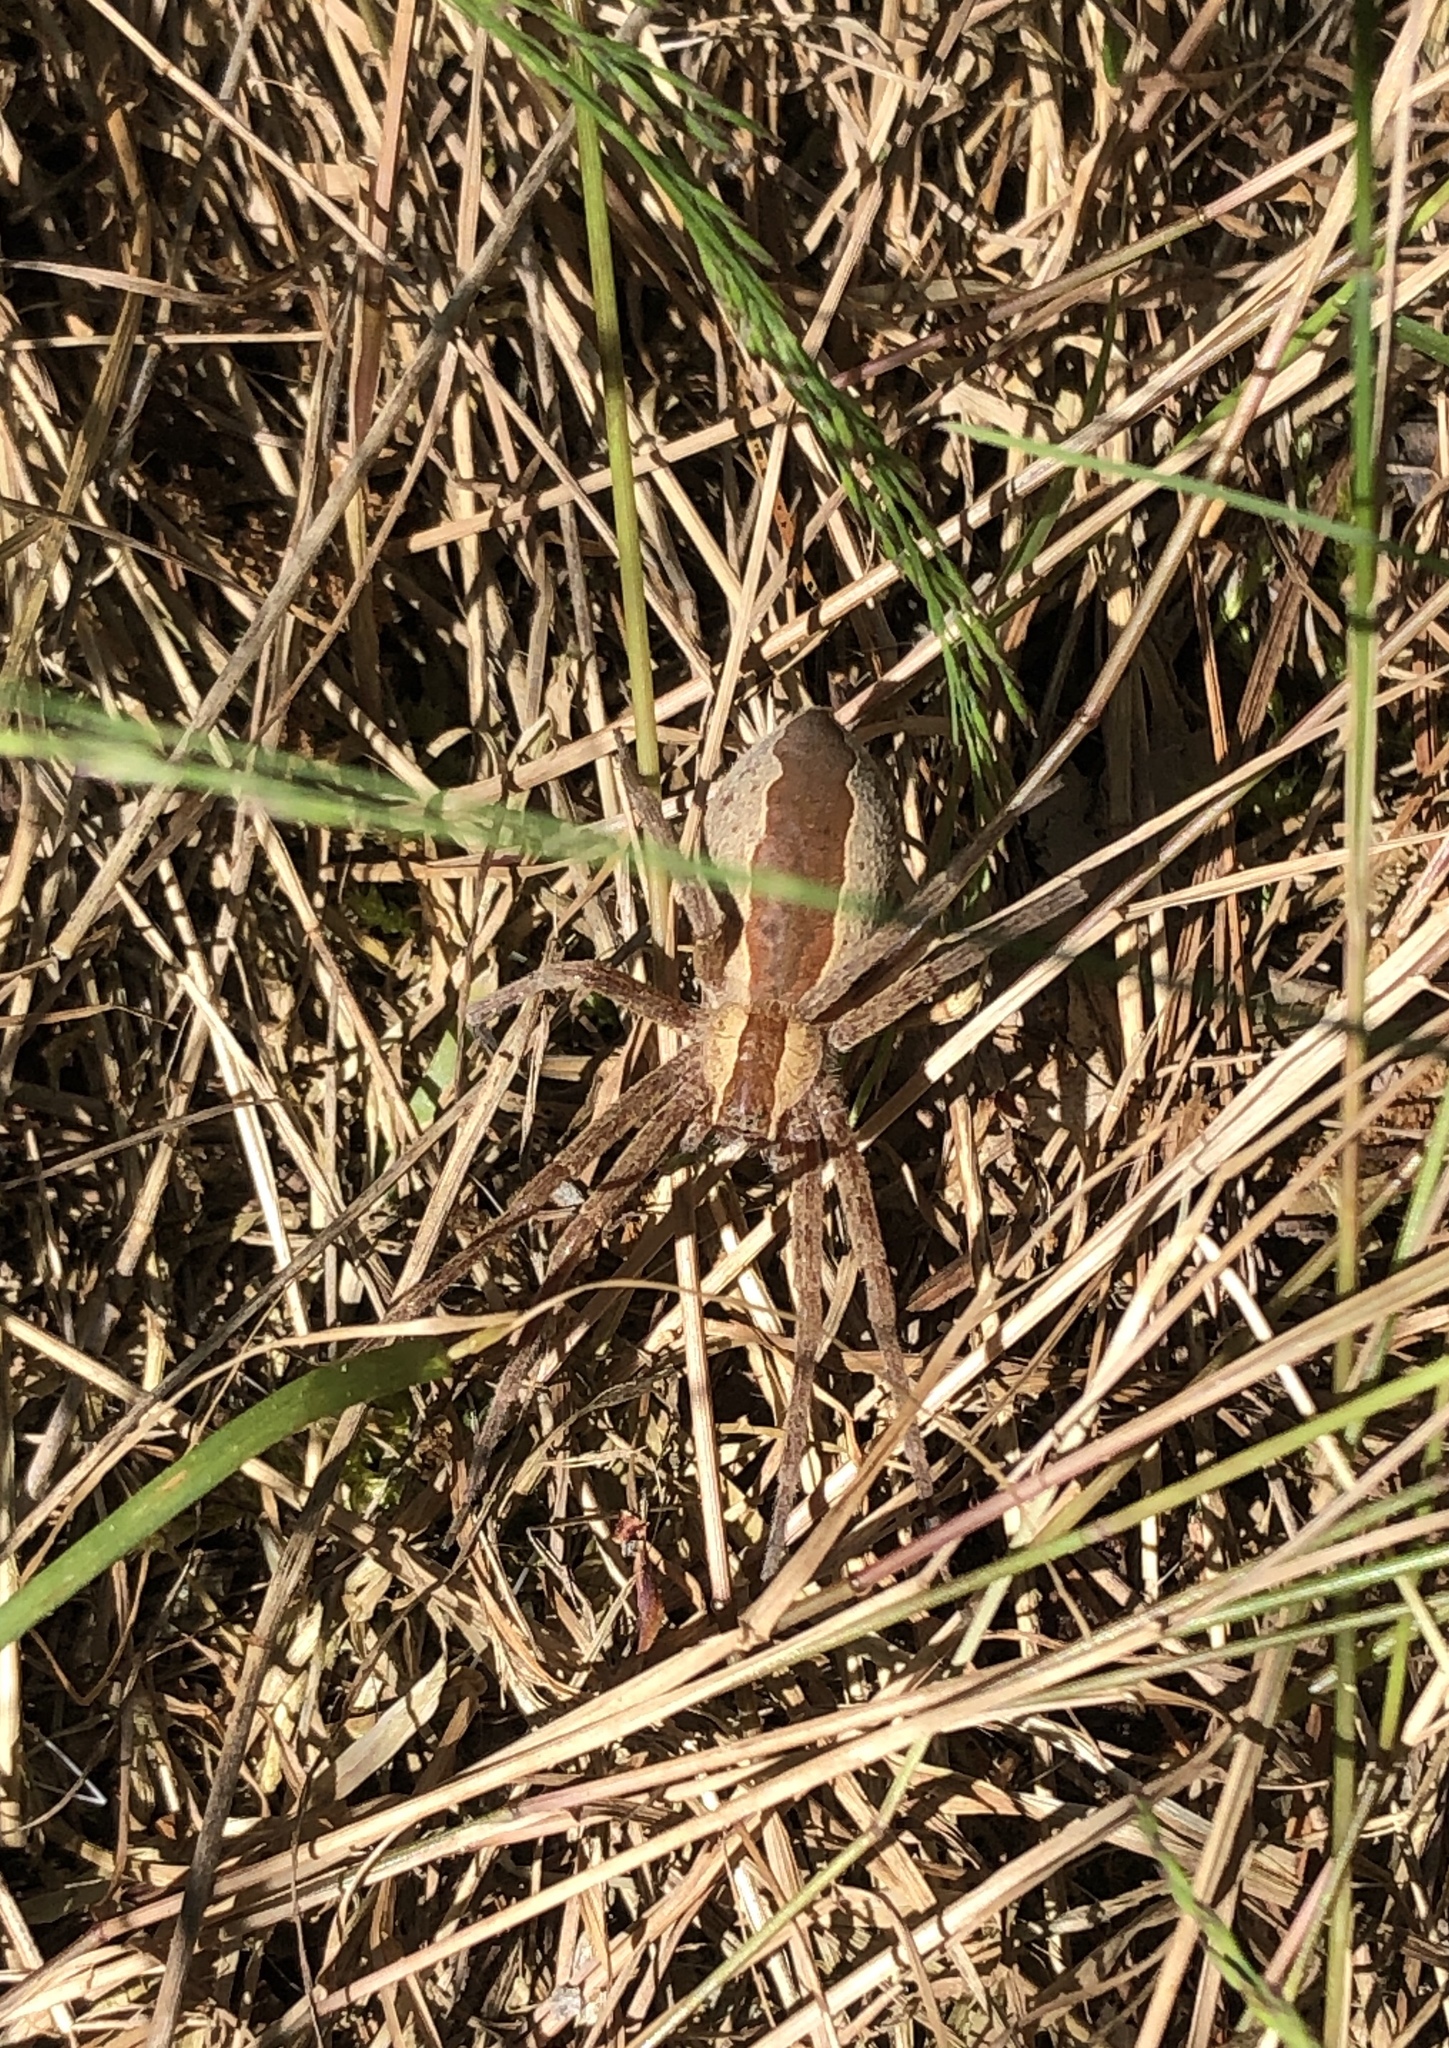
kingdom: Animalia
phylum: Arthropoda
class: Arachnida
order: Araneae
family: Pisauridae
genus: Pisaurina
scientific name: Pisaurina mira
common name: American nursery web spider
